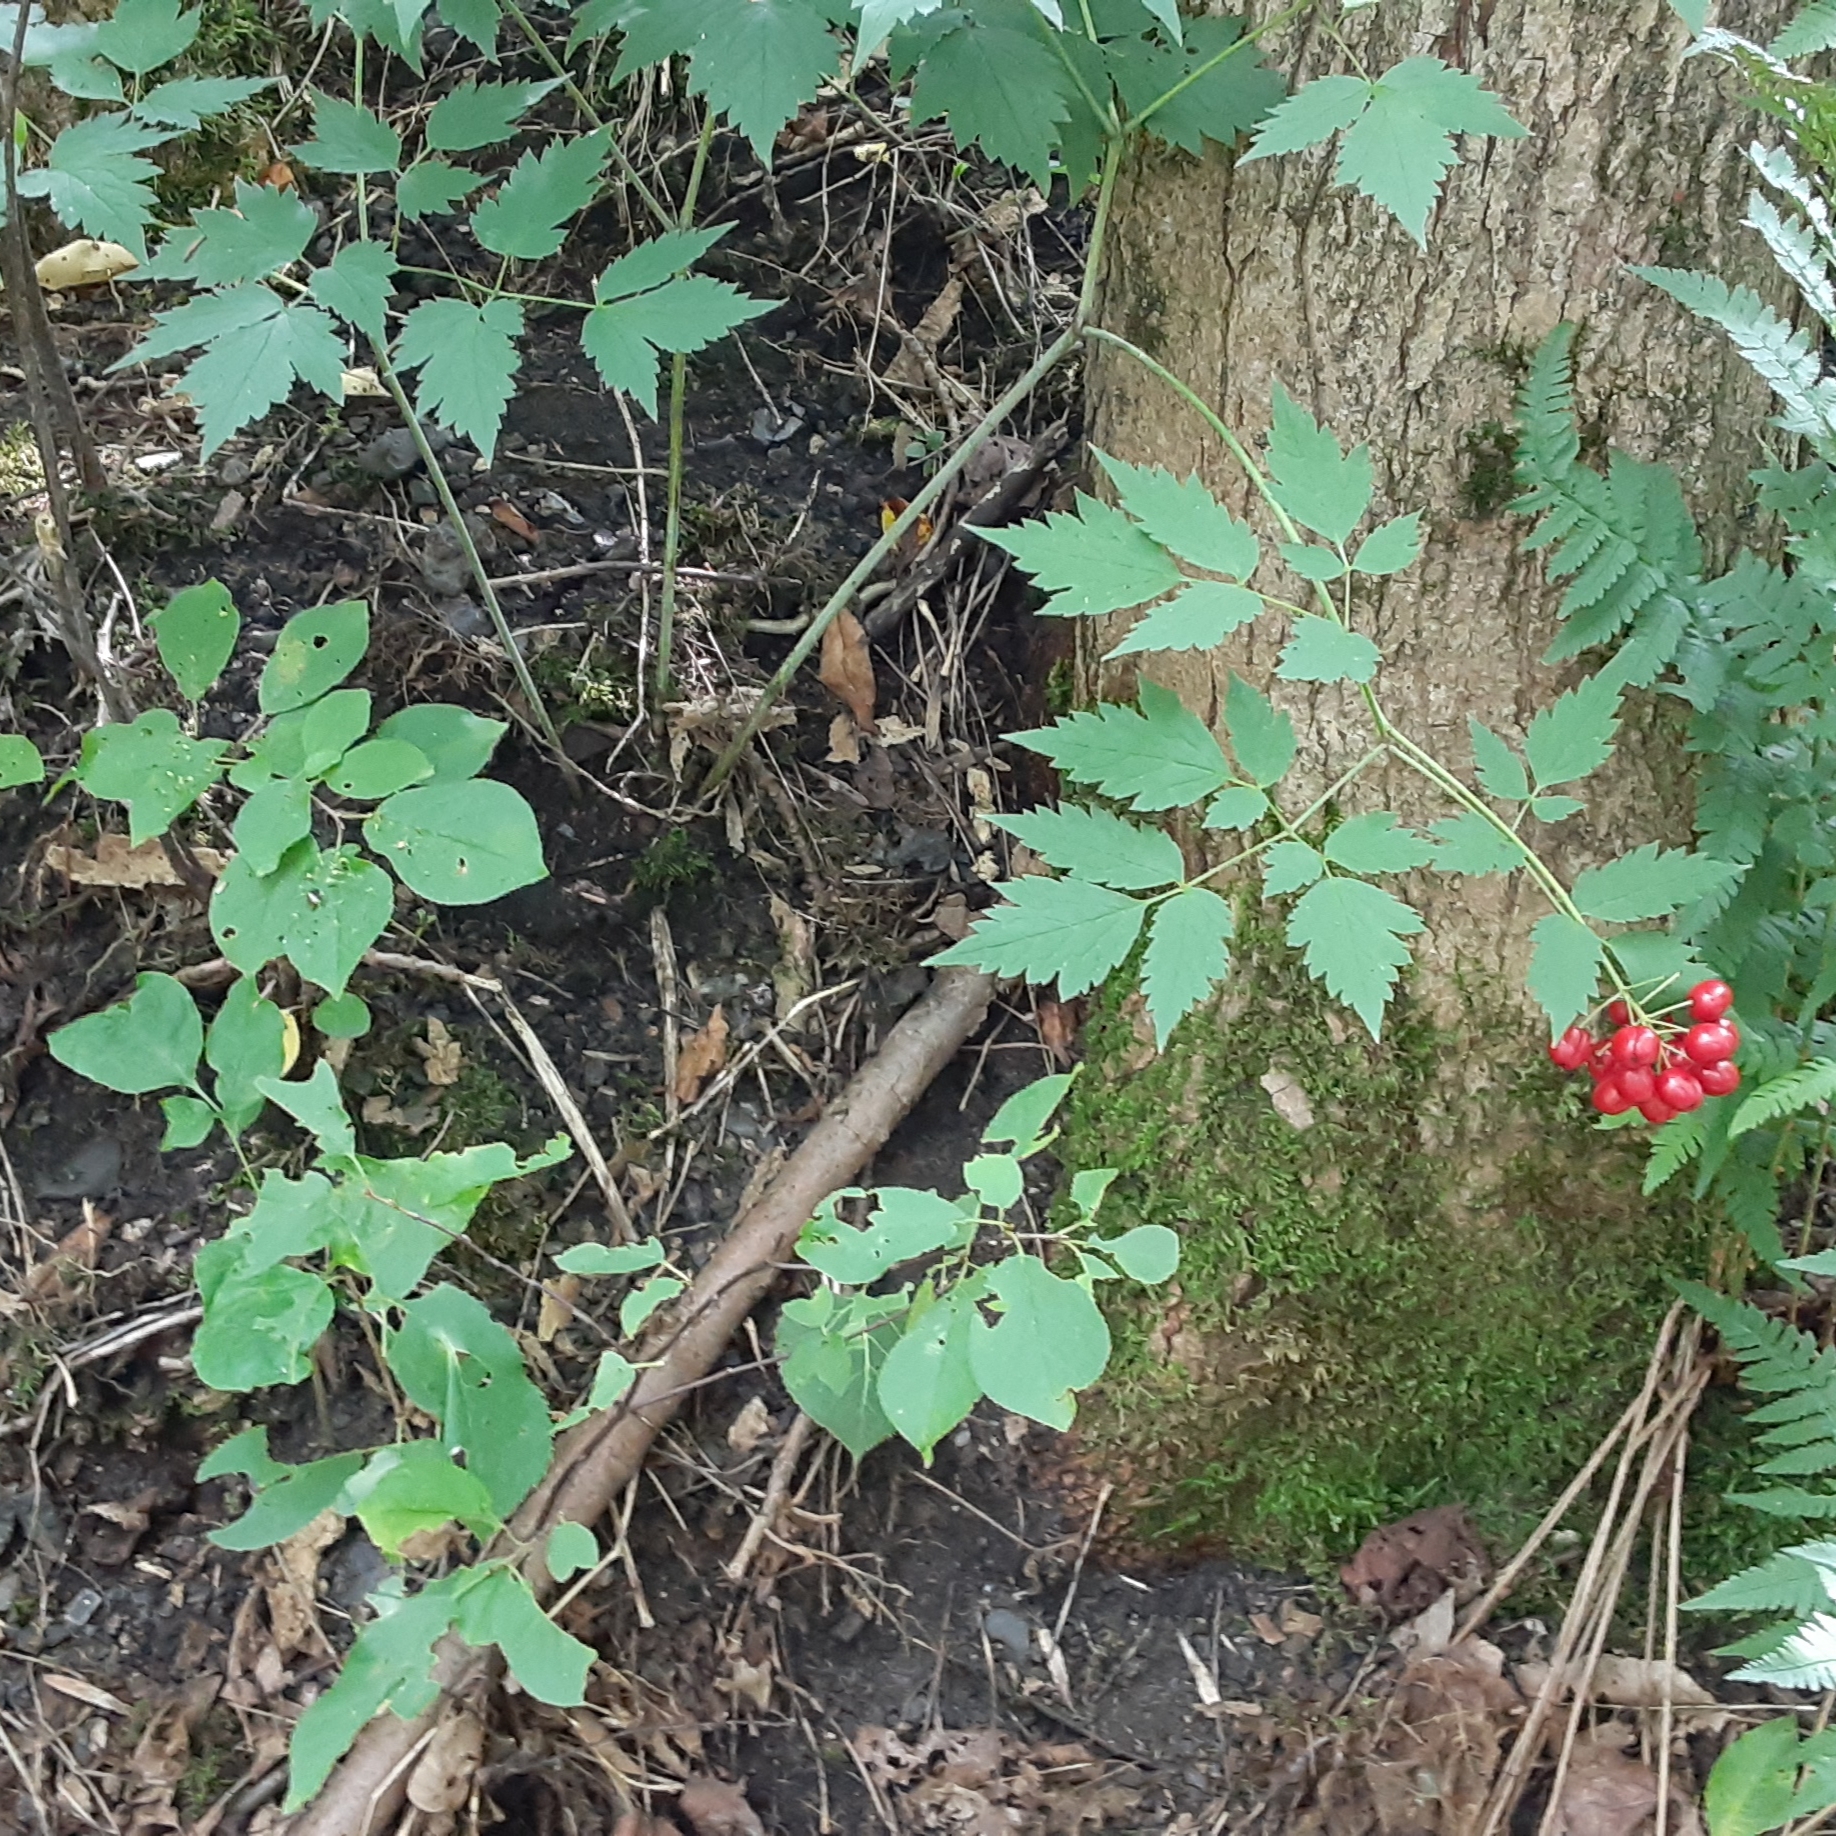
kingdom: Plantae
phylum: Tracheophyta
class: Magnoliopsida
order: Ranunculales
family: Ranunculaceae
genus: Actaea
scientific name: Actaea rubra
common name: Red baneberry
